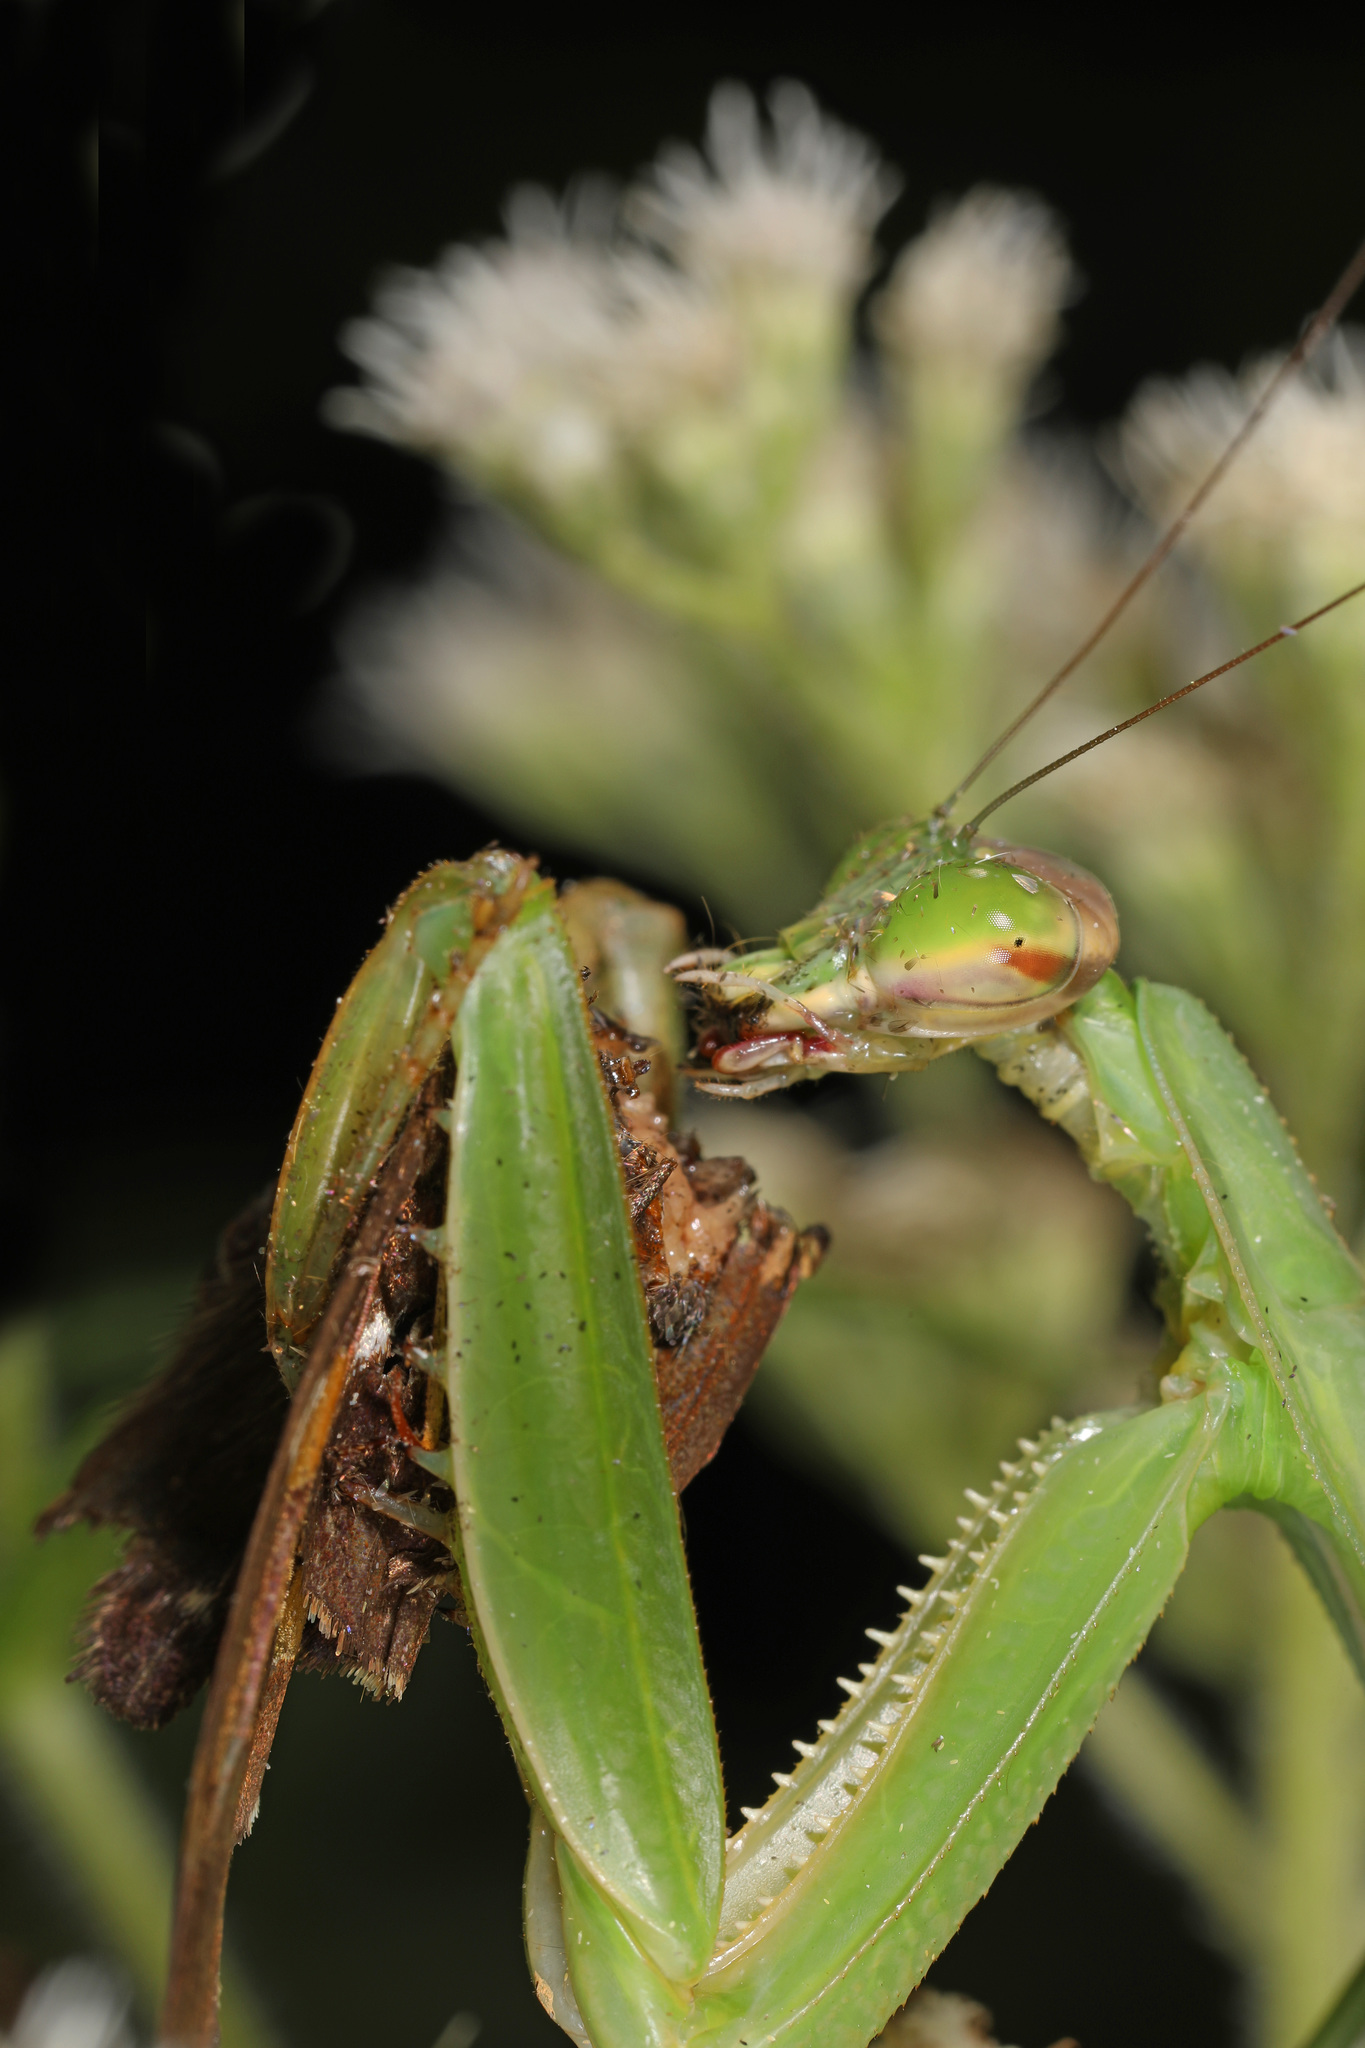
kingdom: Animalia
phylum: Arthropoda
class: Insecta
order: Mantodea
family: Mantidae
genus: Tenodera
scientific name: Tenodera sinensis
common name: Chinese mantis
